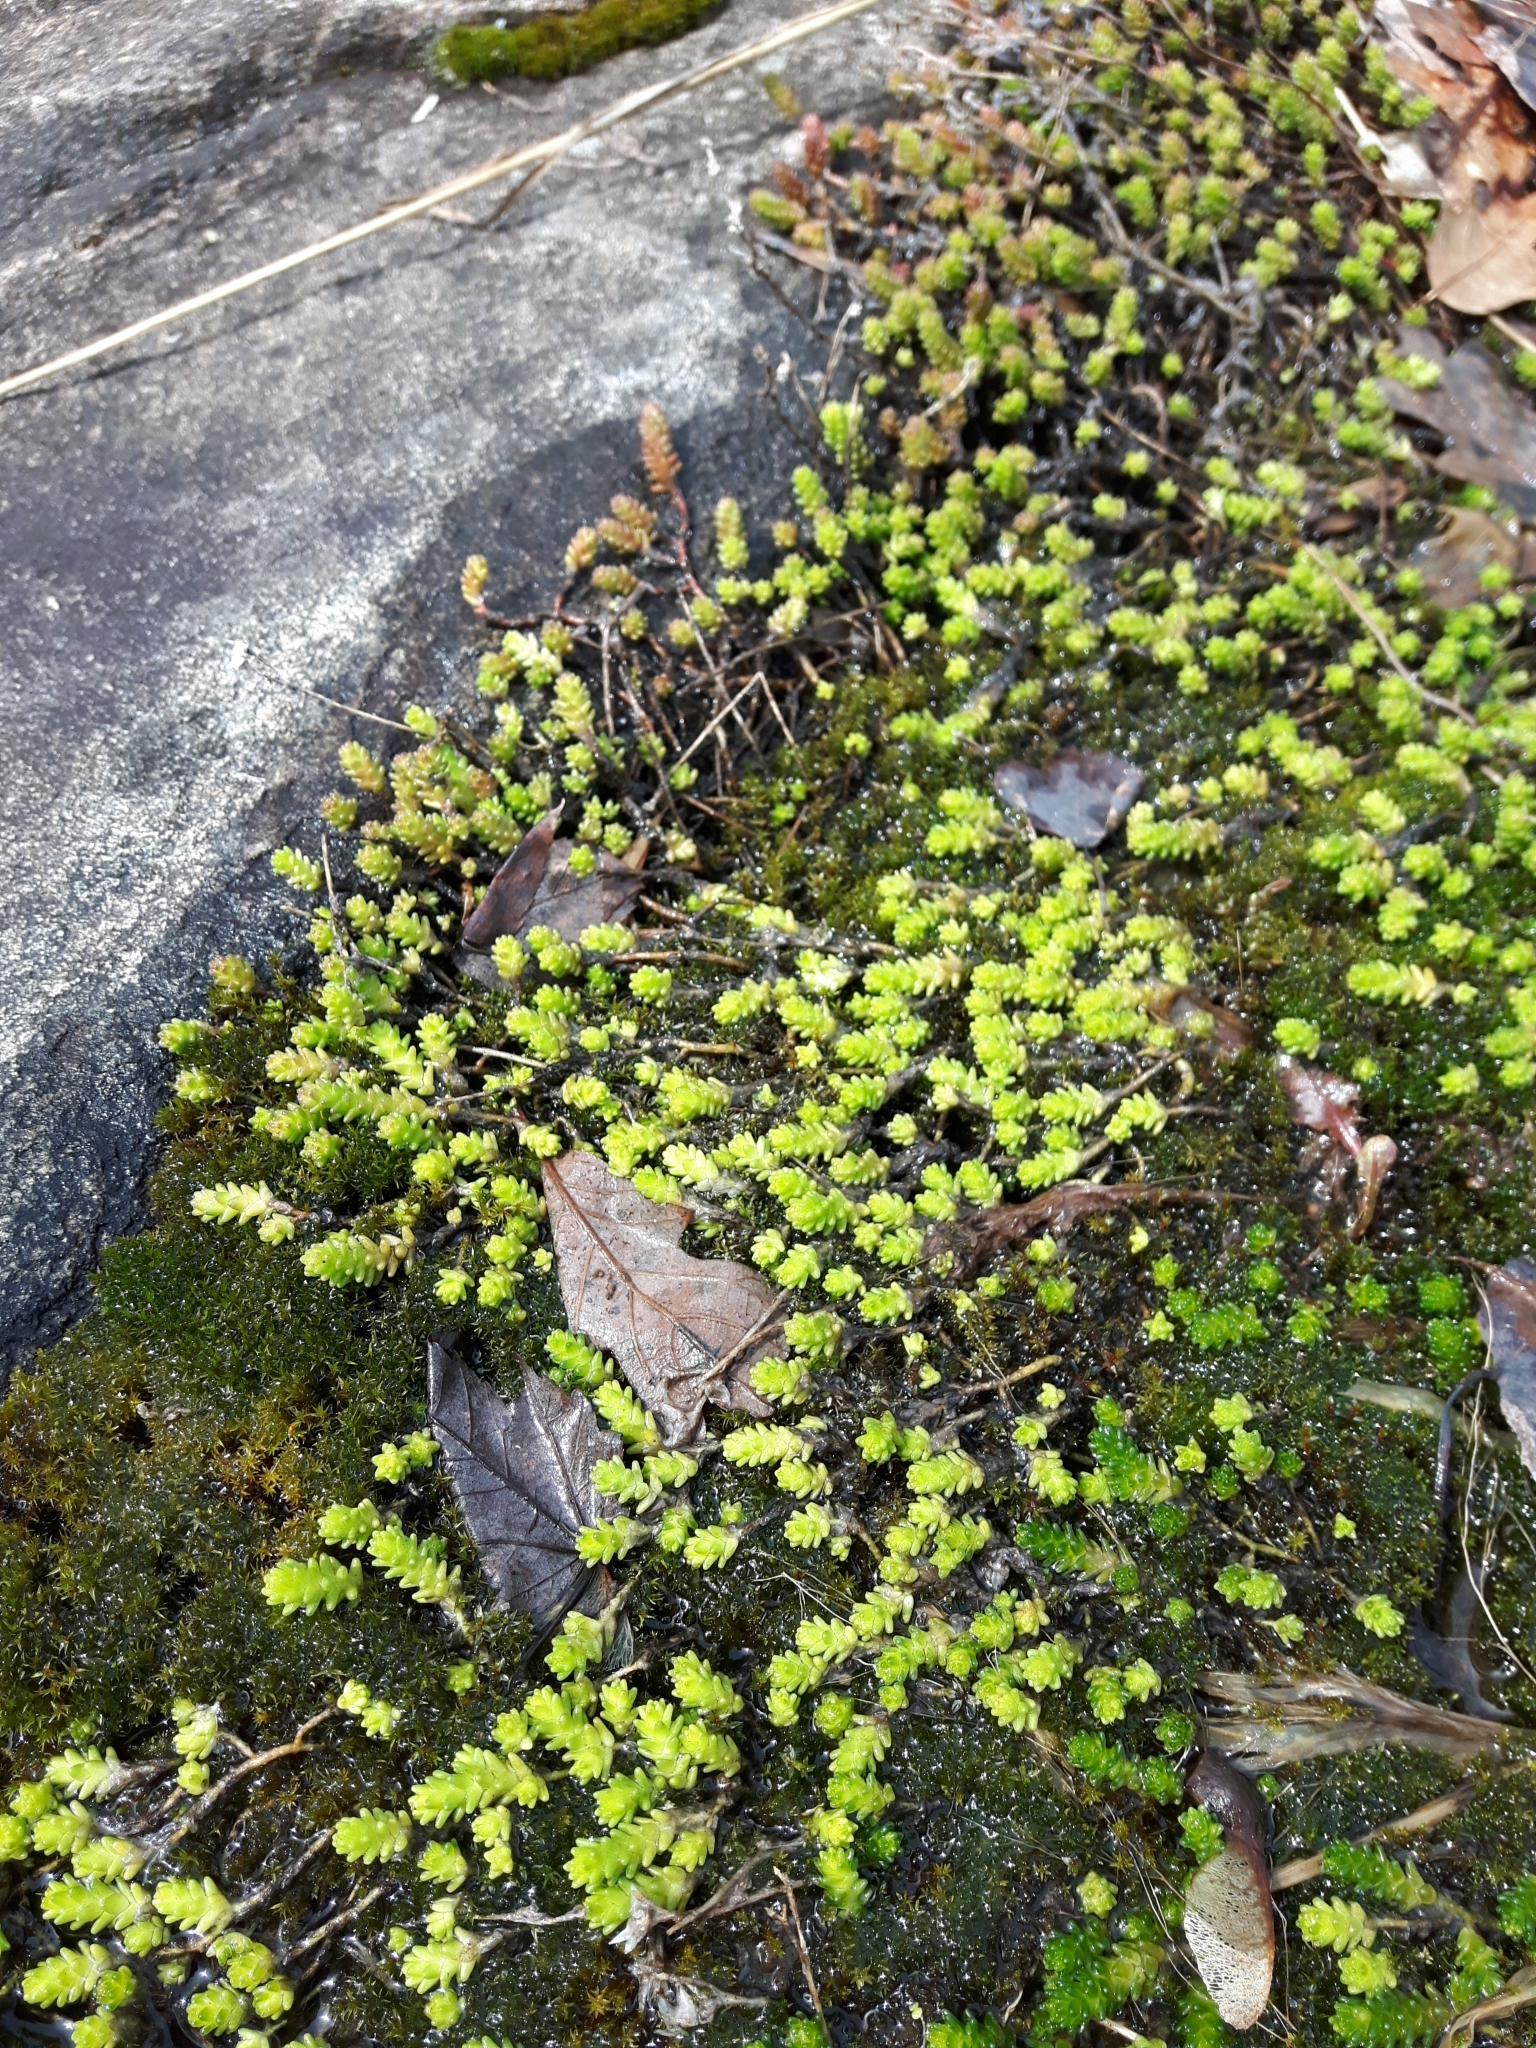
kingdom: Plantae
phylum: Tracheophyta
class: Magnoliopsida
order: Saxifragales
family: Crassulaceae
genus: Sedum
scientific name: Sedum acre
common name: Biting stonecrop
